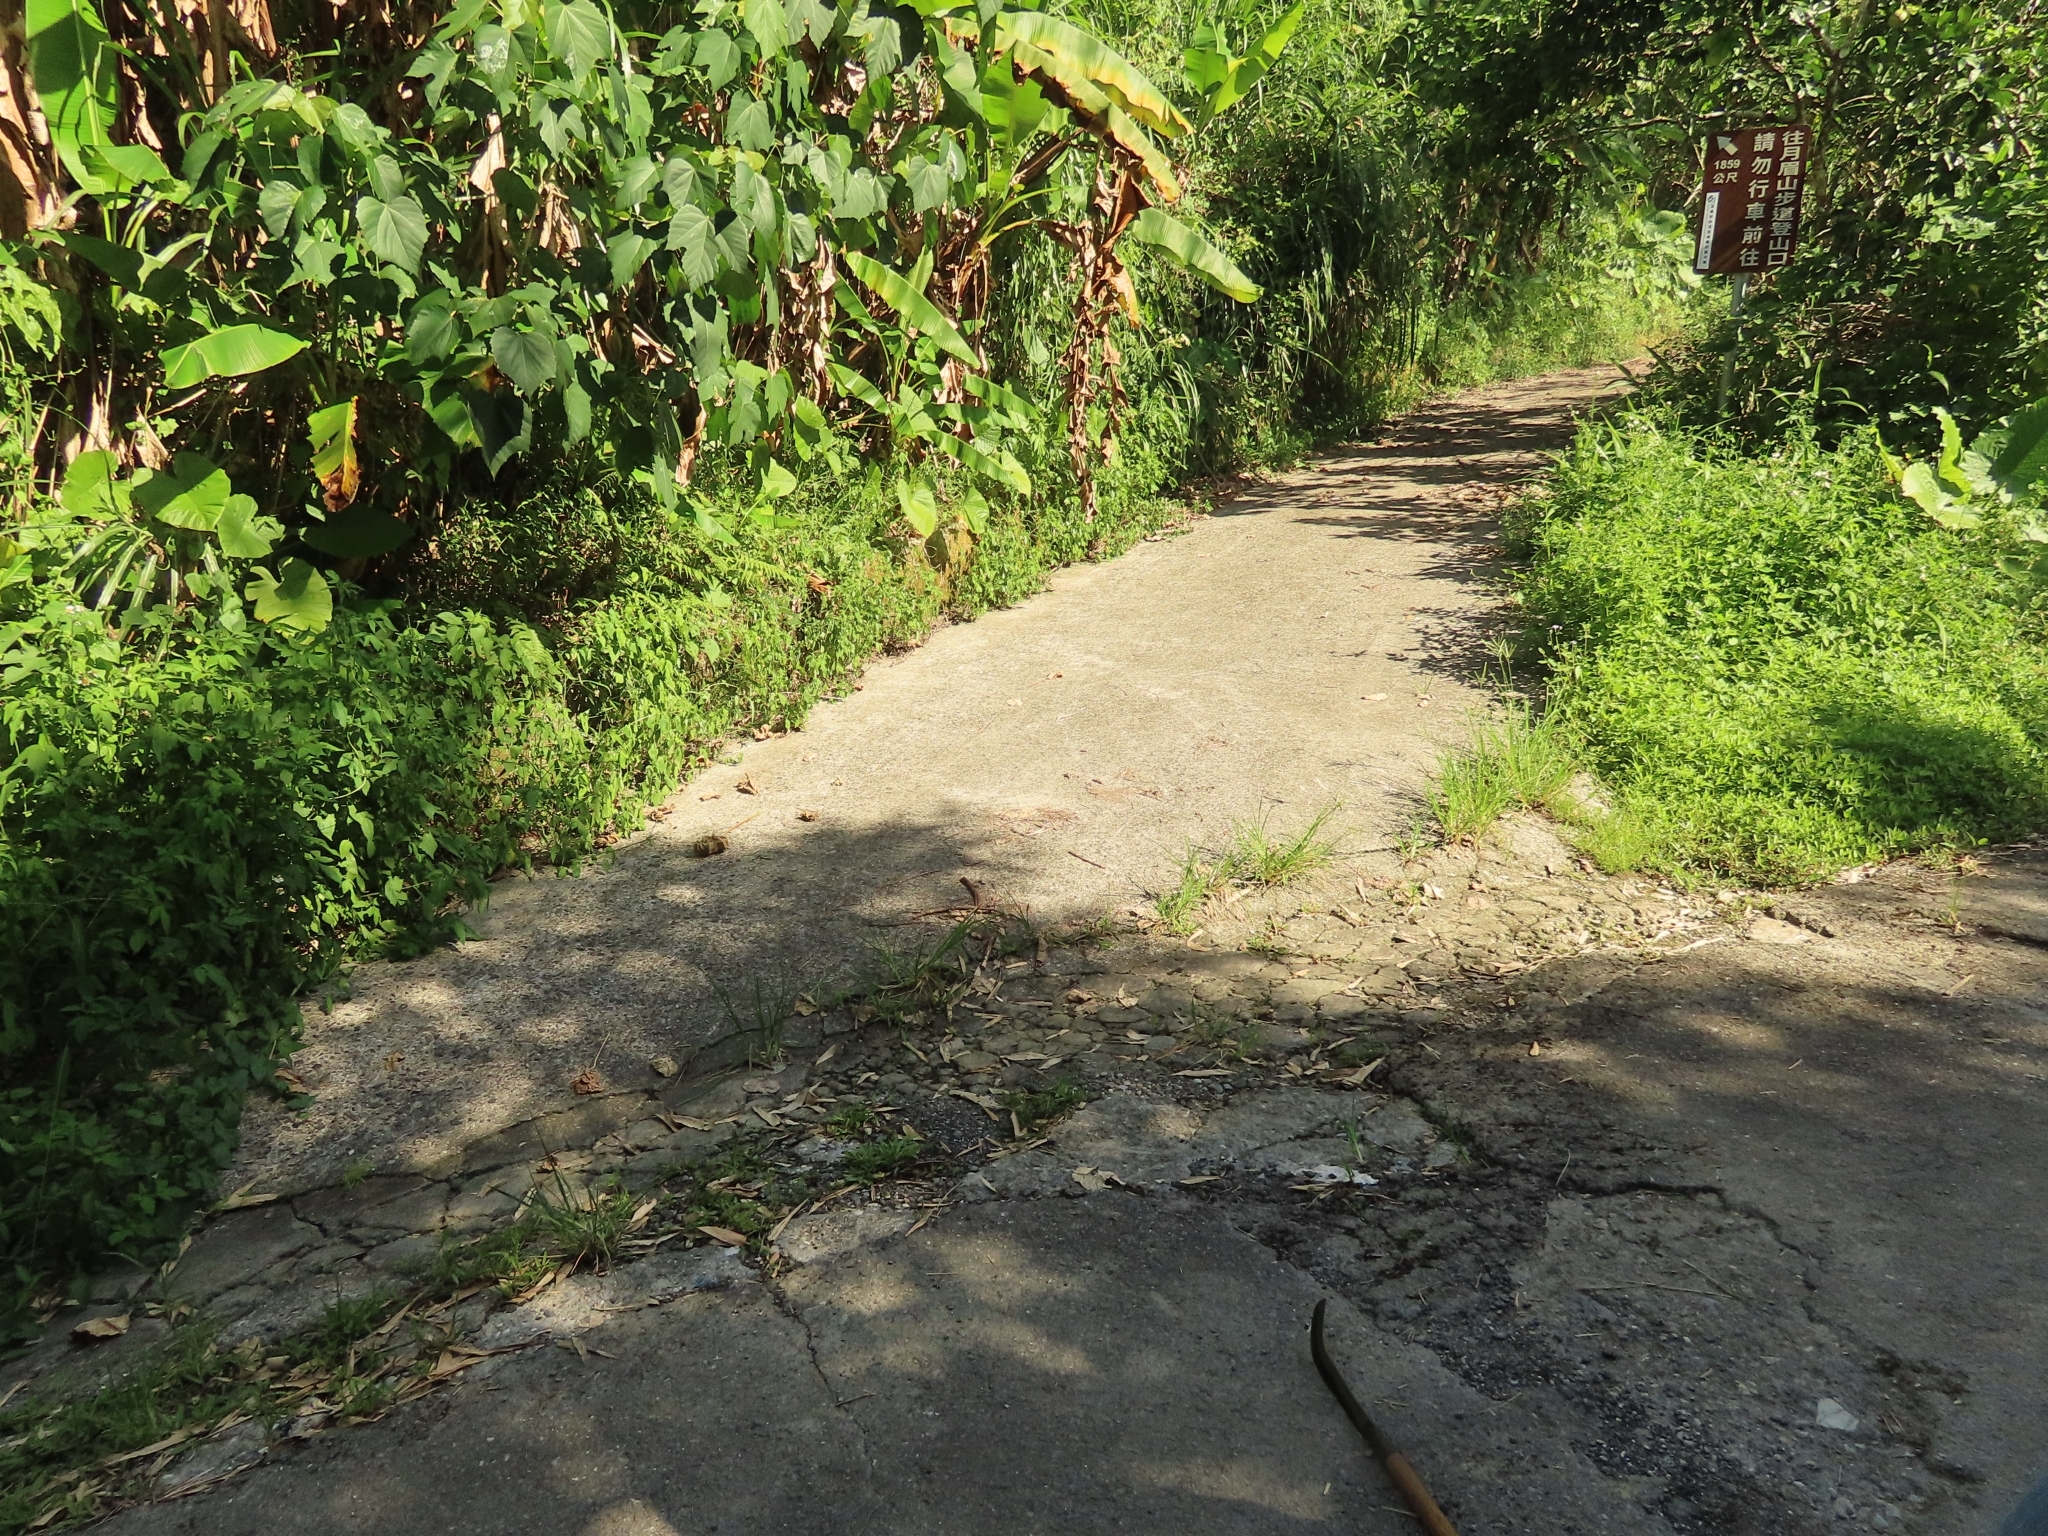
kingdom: Animalia
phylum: Chordata
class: Squamata
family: Agamidae
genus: Diploderma
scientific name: Diploderma swinhonis
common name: Taiwan japalure
